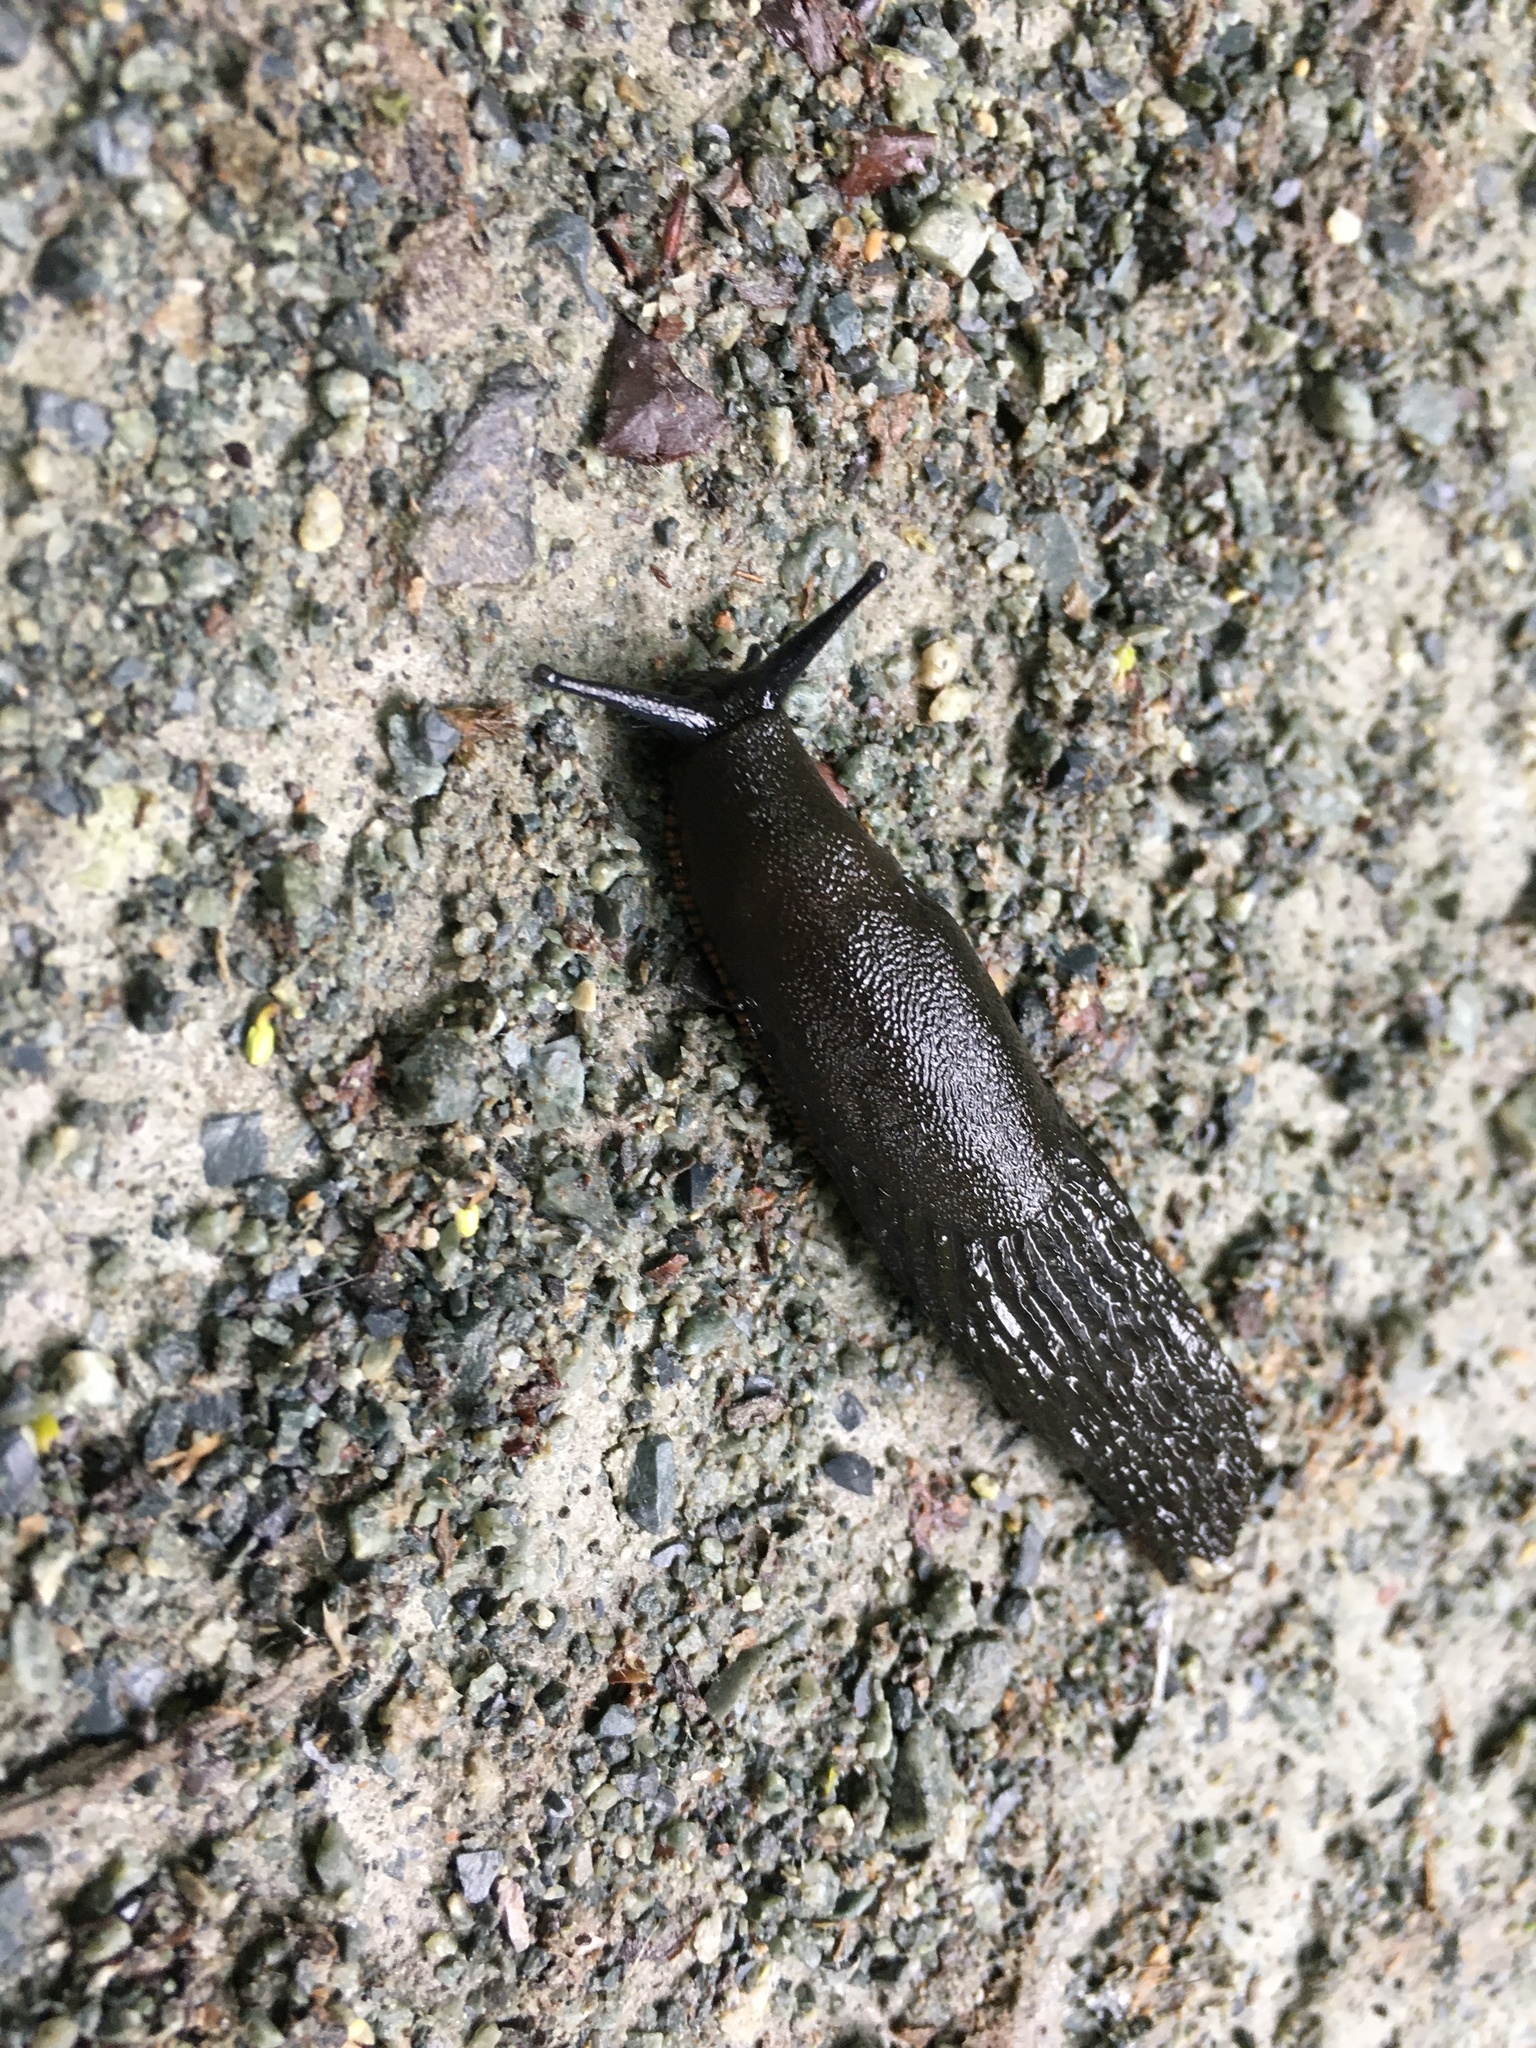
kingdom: Animalia
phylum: Mollusca
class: Gastropoda
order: Stylommatophora
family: Arionidae
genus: Arion
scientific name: Arion
